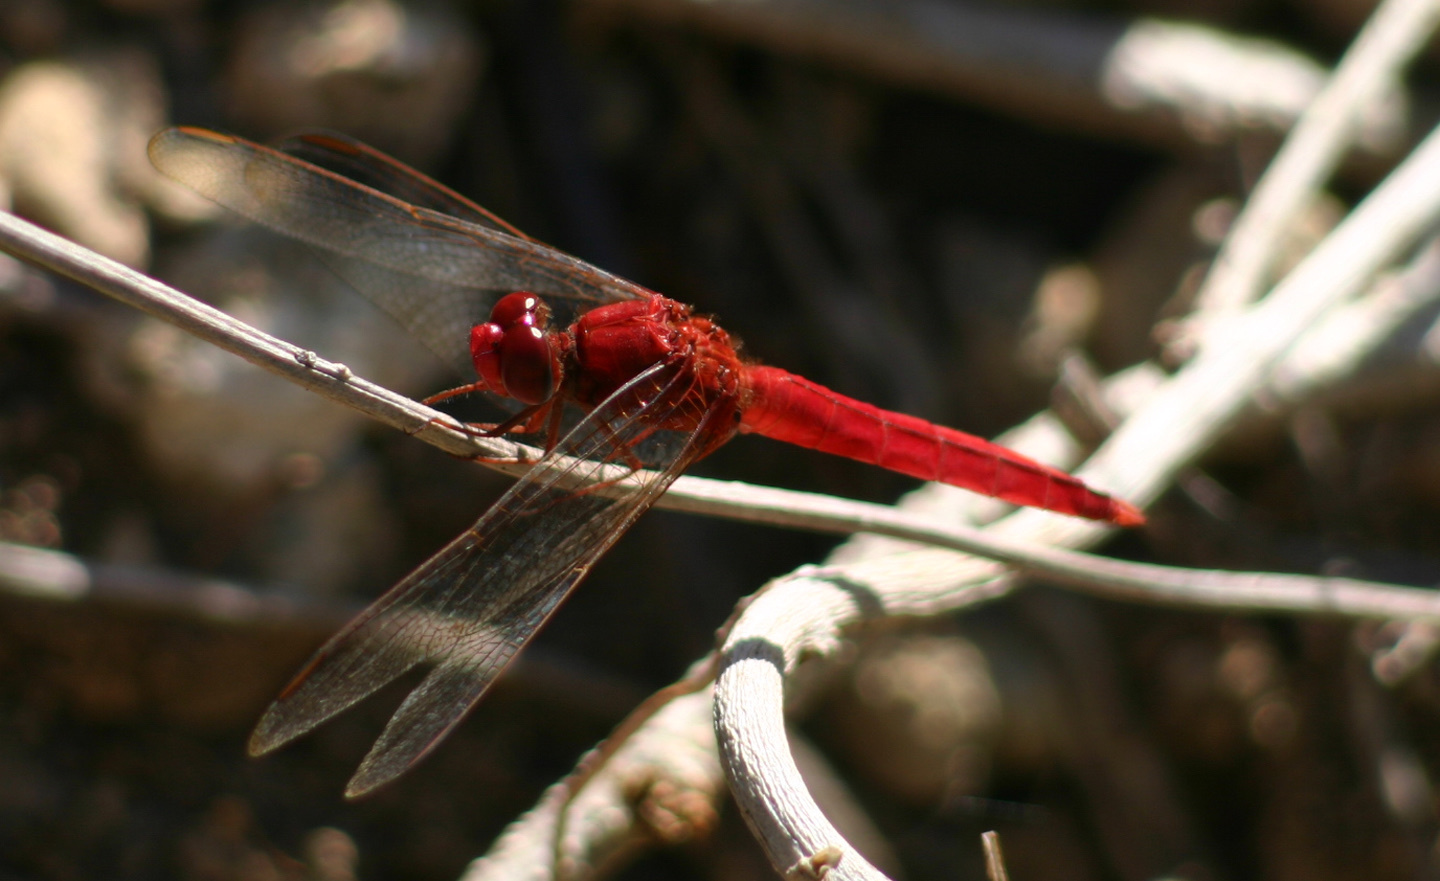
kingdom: Animalia
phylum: Arthropoda
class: Insecta
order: Odonata
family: Libellulidae
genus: Crocothemis
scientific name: Crocothemis servilia
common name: Scarlet skimmer
